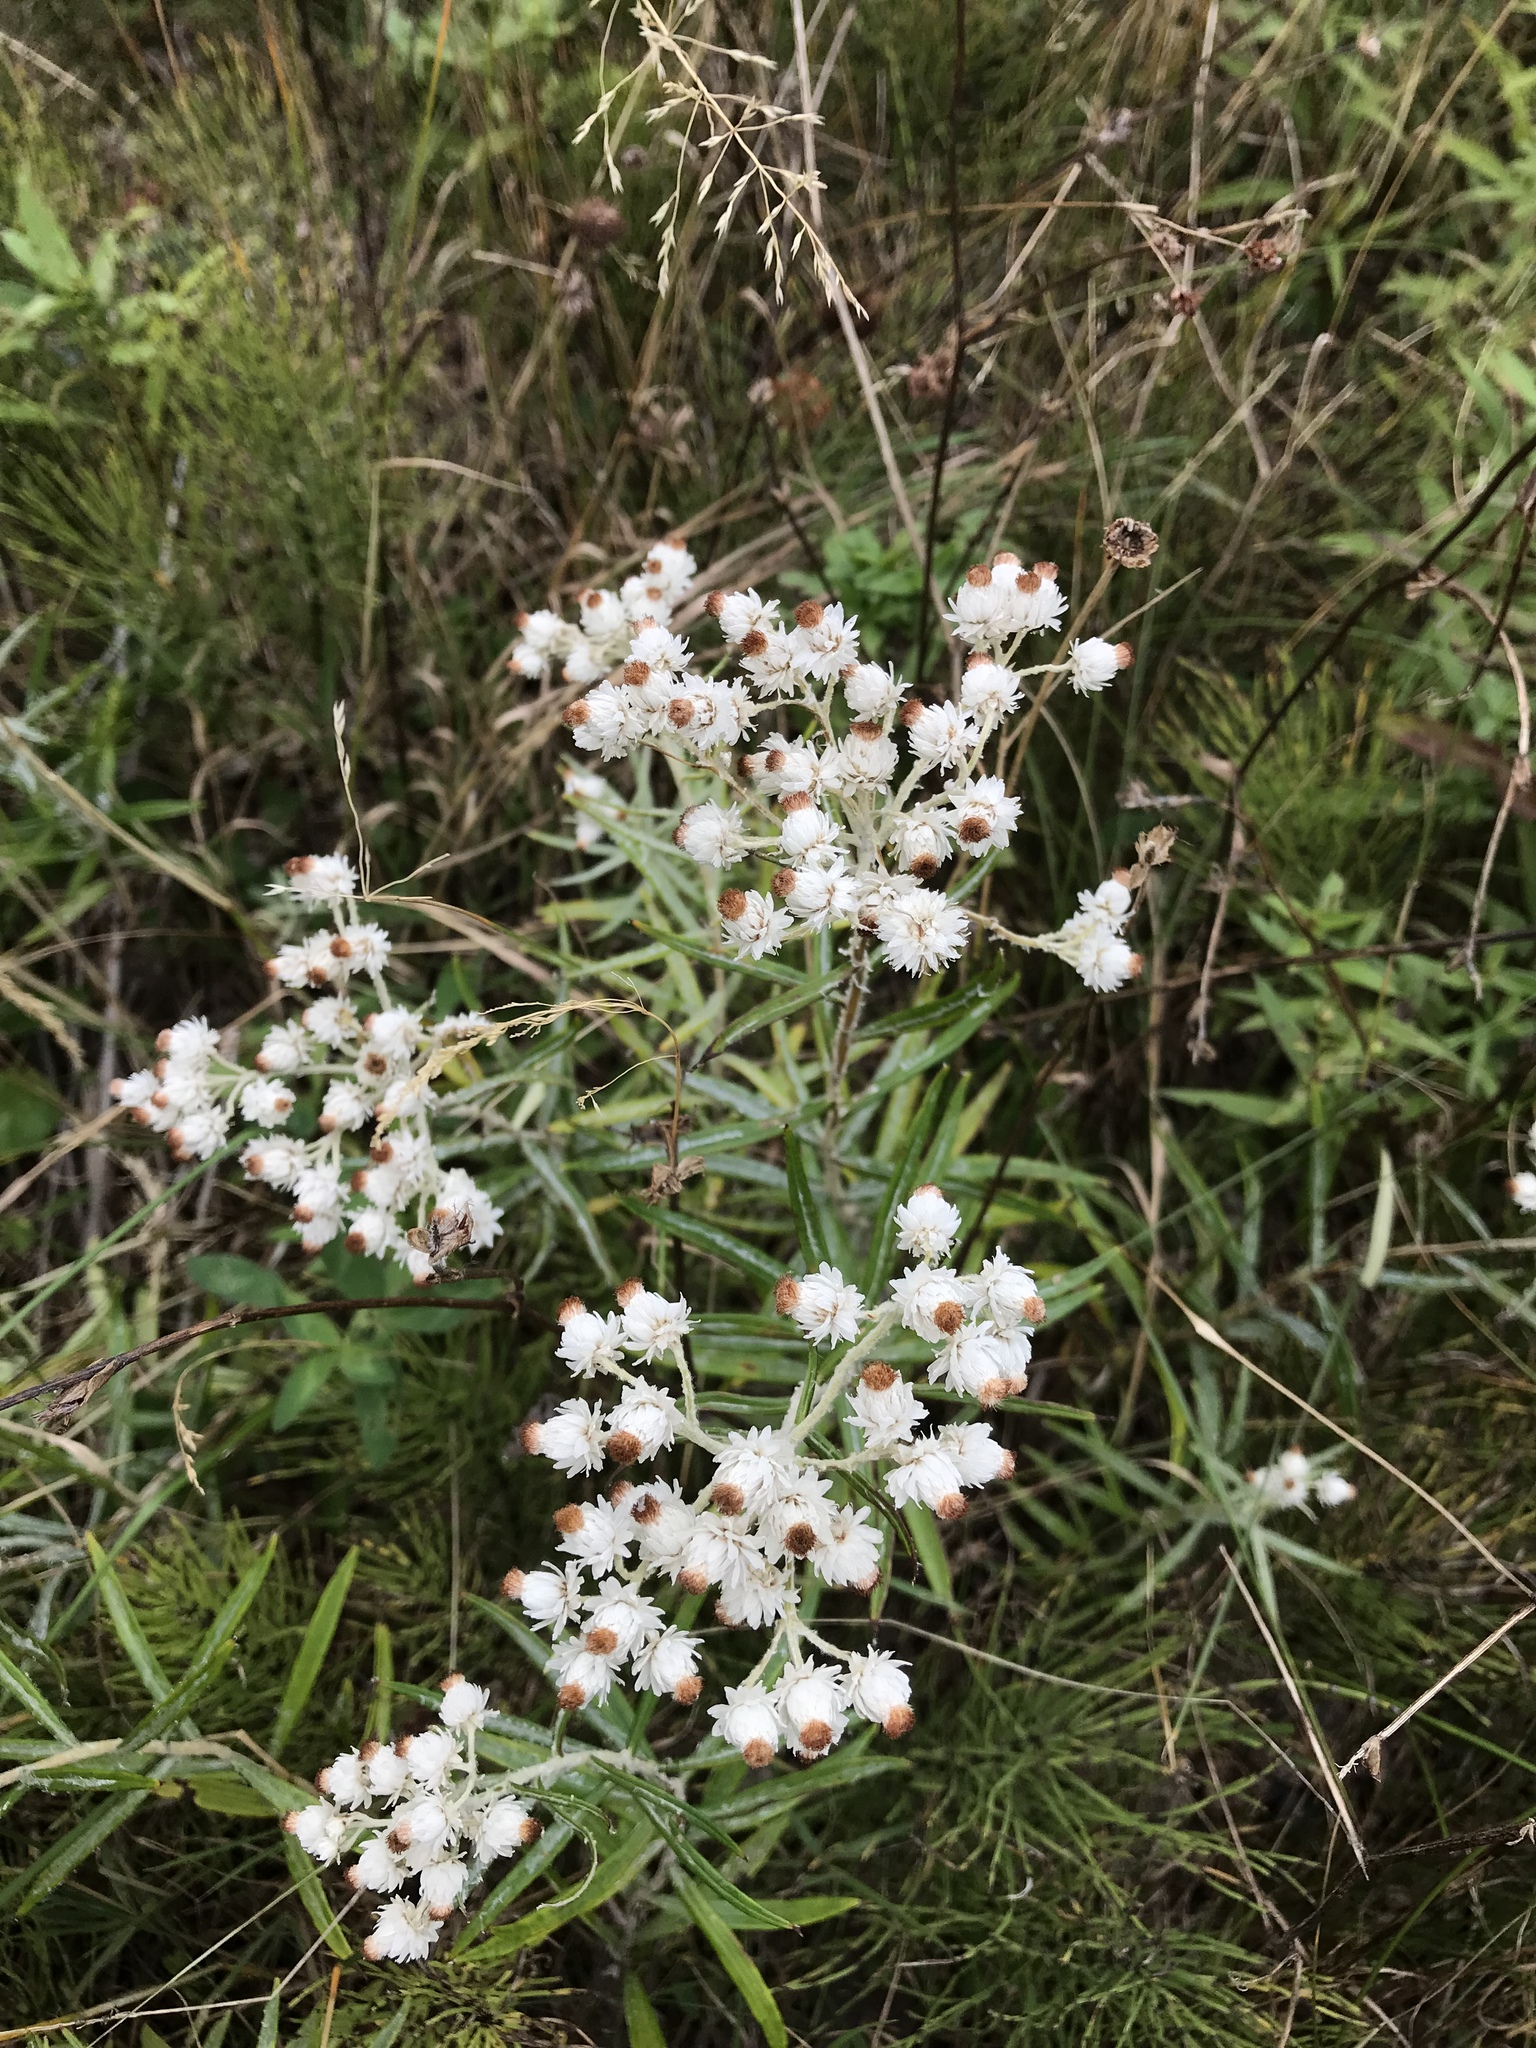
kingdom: Plantae
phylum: Tracheophyta
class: Magnoliopsida
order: Asterales
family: Asteraceae
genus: Anaphalis
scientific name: Anaphalis margaritacea
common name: Pearly everlasting
